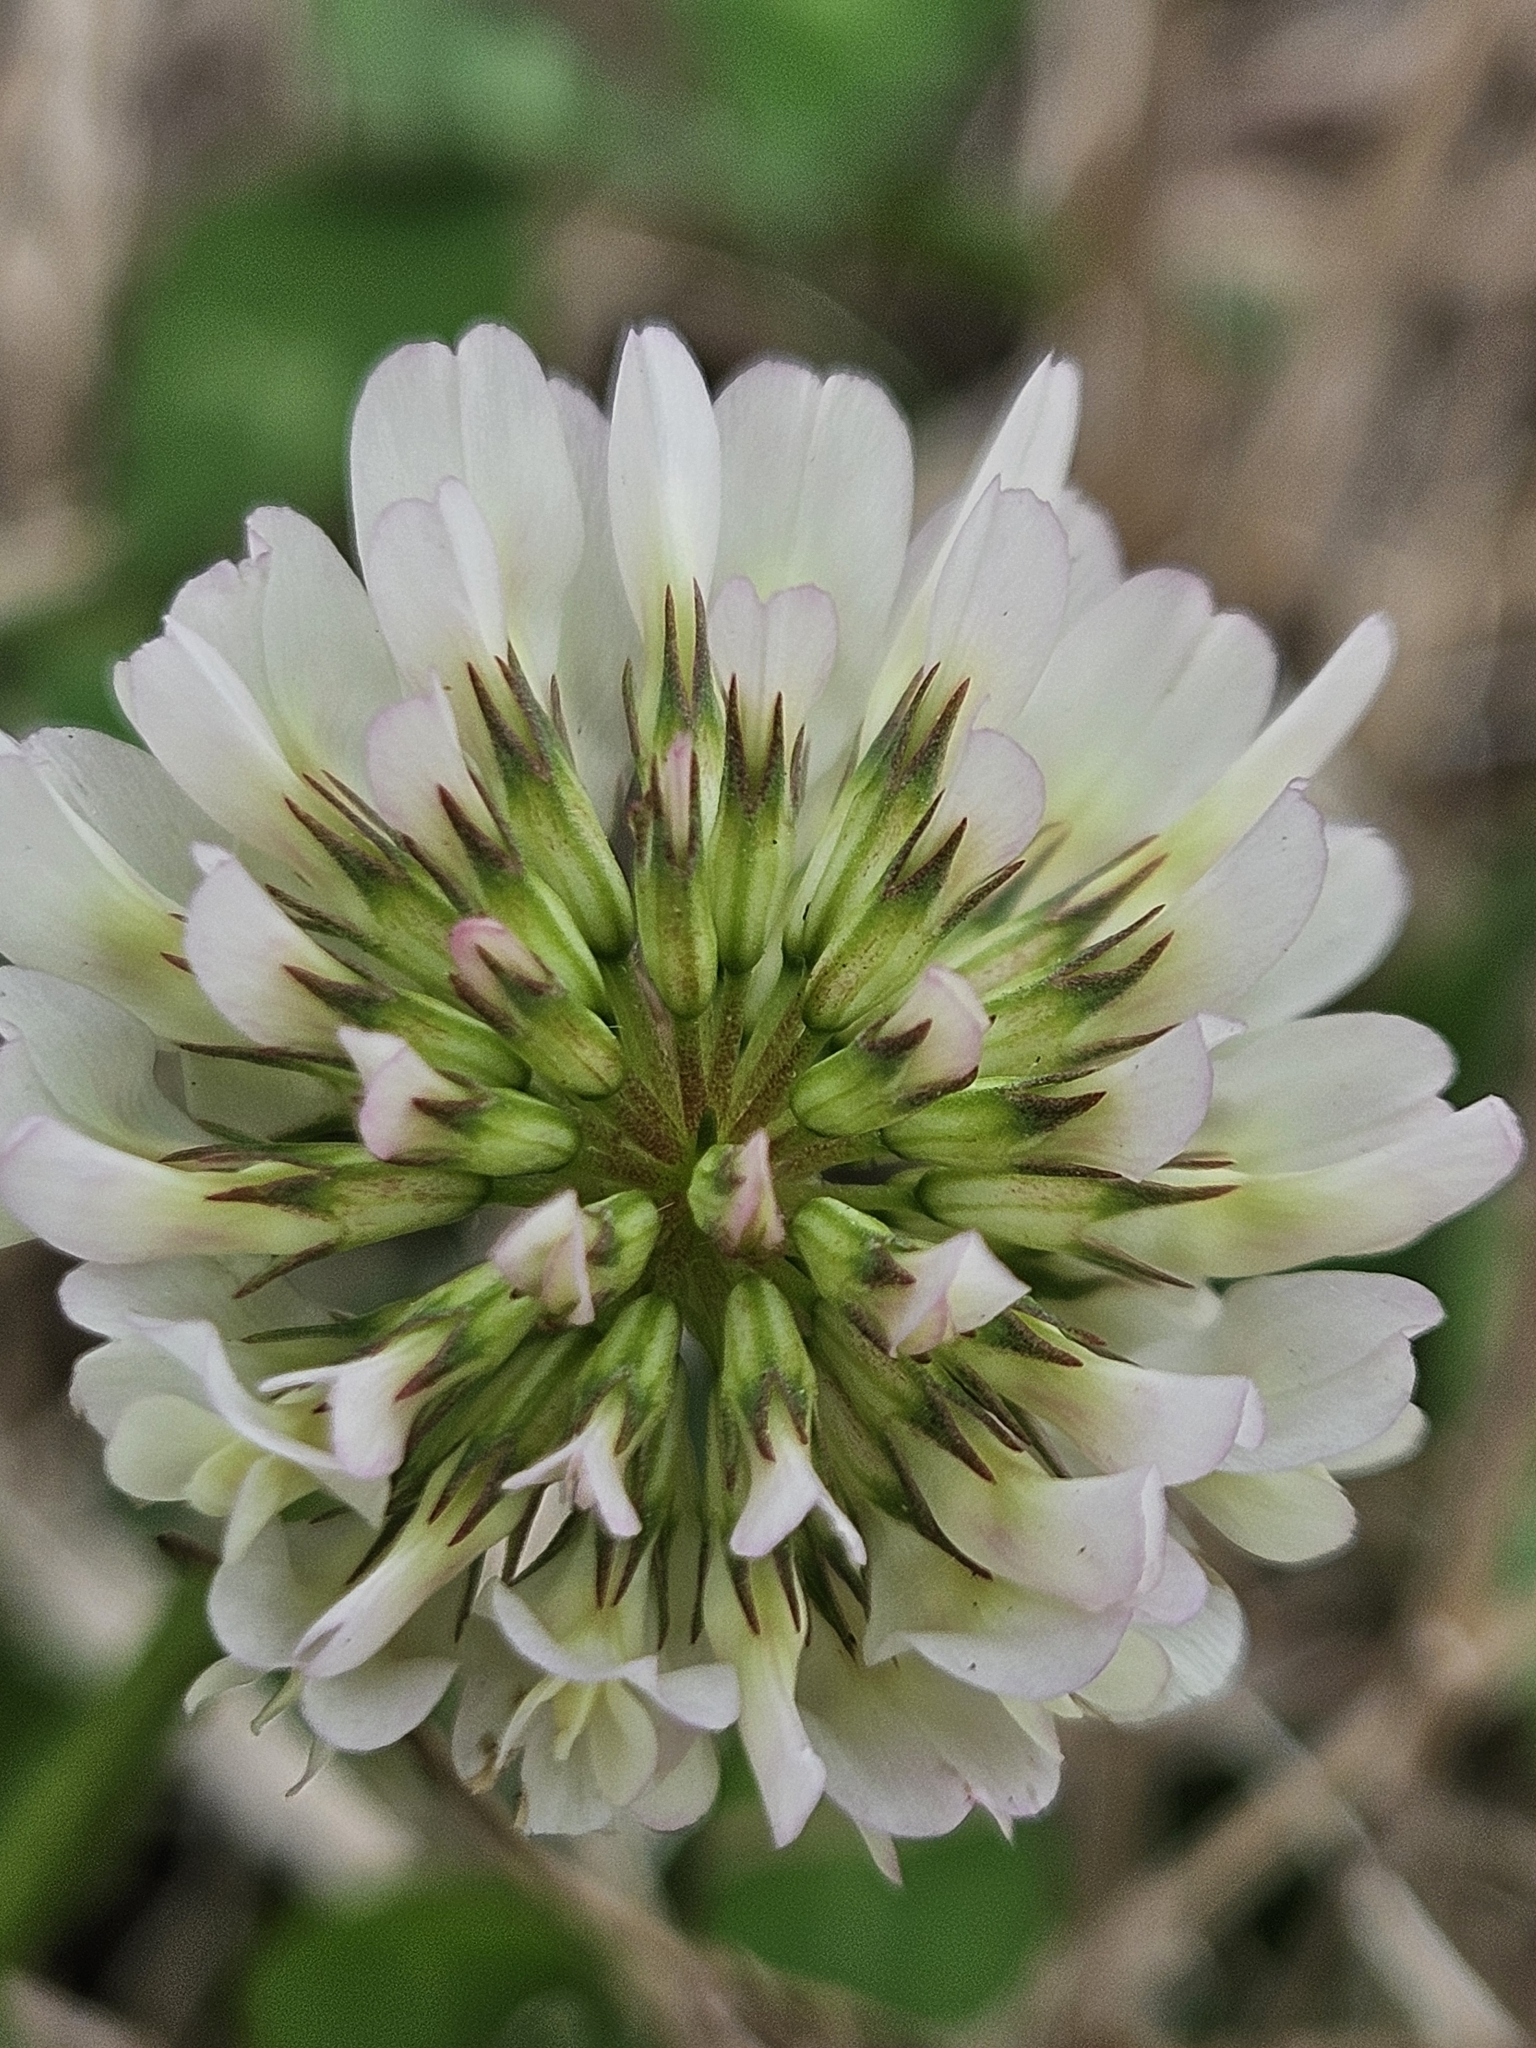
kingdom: Plantae
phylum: Tracheophyta
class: Magnoliopsida
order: Fabales
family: Fabaceae
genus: Trifolium
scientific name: Trifolium repens
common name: White clover
